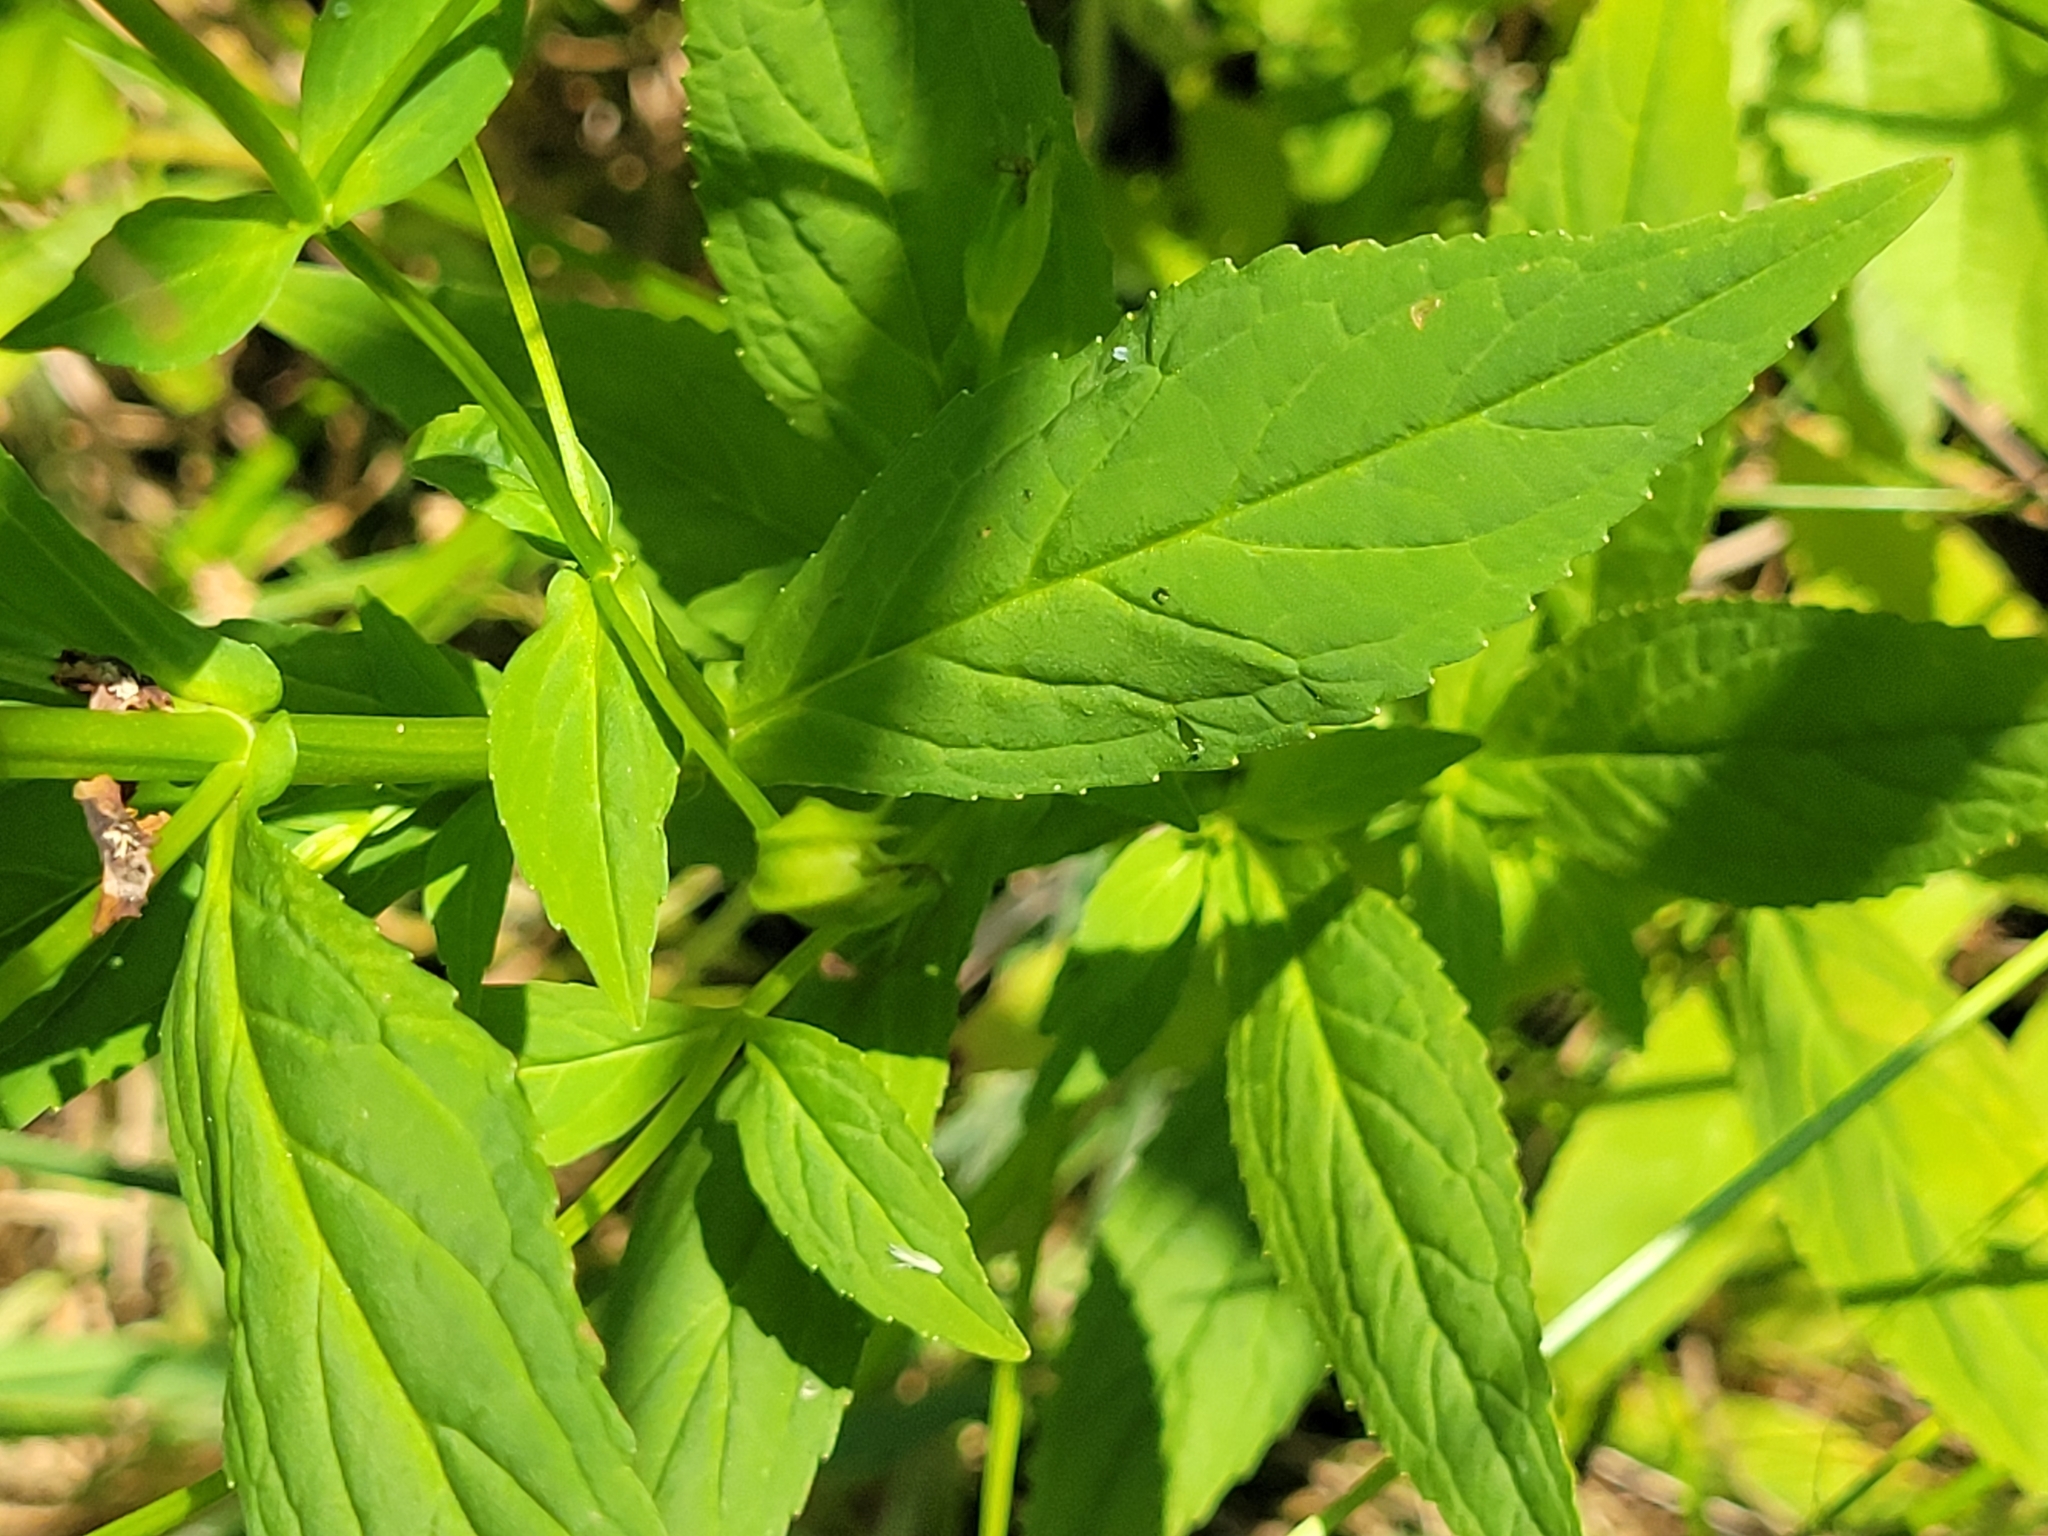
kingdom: Plantae
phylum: Tracheophyta
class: Magnoliopsida
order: Lamiales
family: Phrymaceae
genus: Mimulus
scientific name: Mimulus ringens
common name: Allegheny monkeyflower
